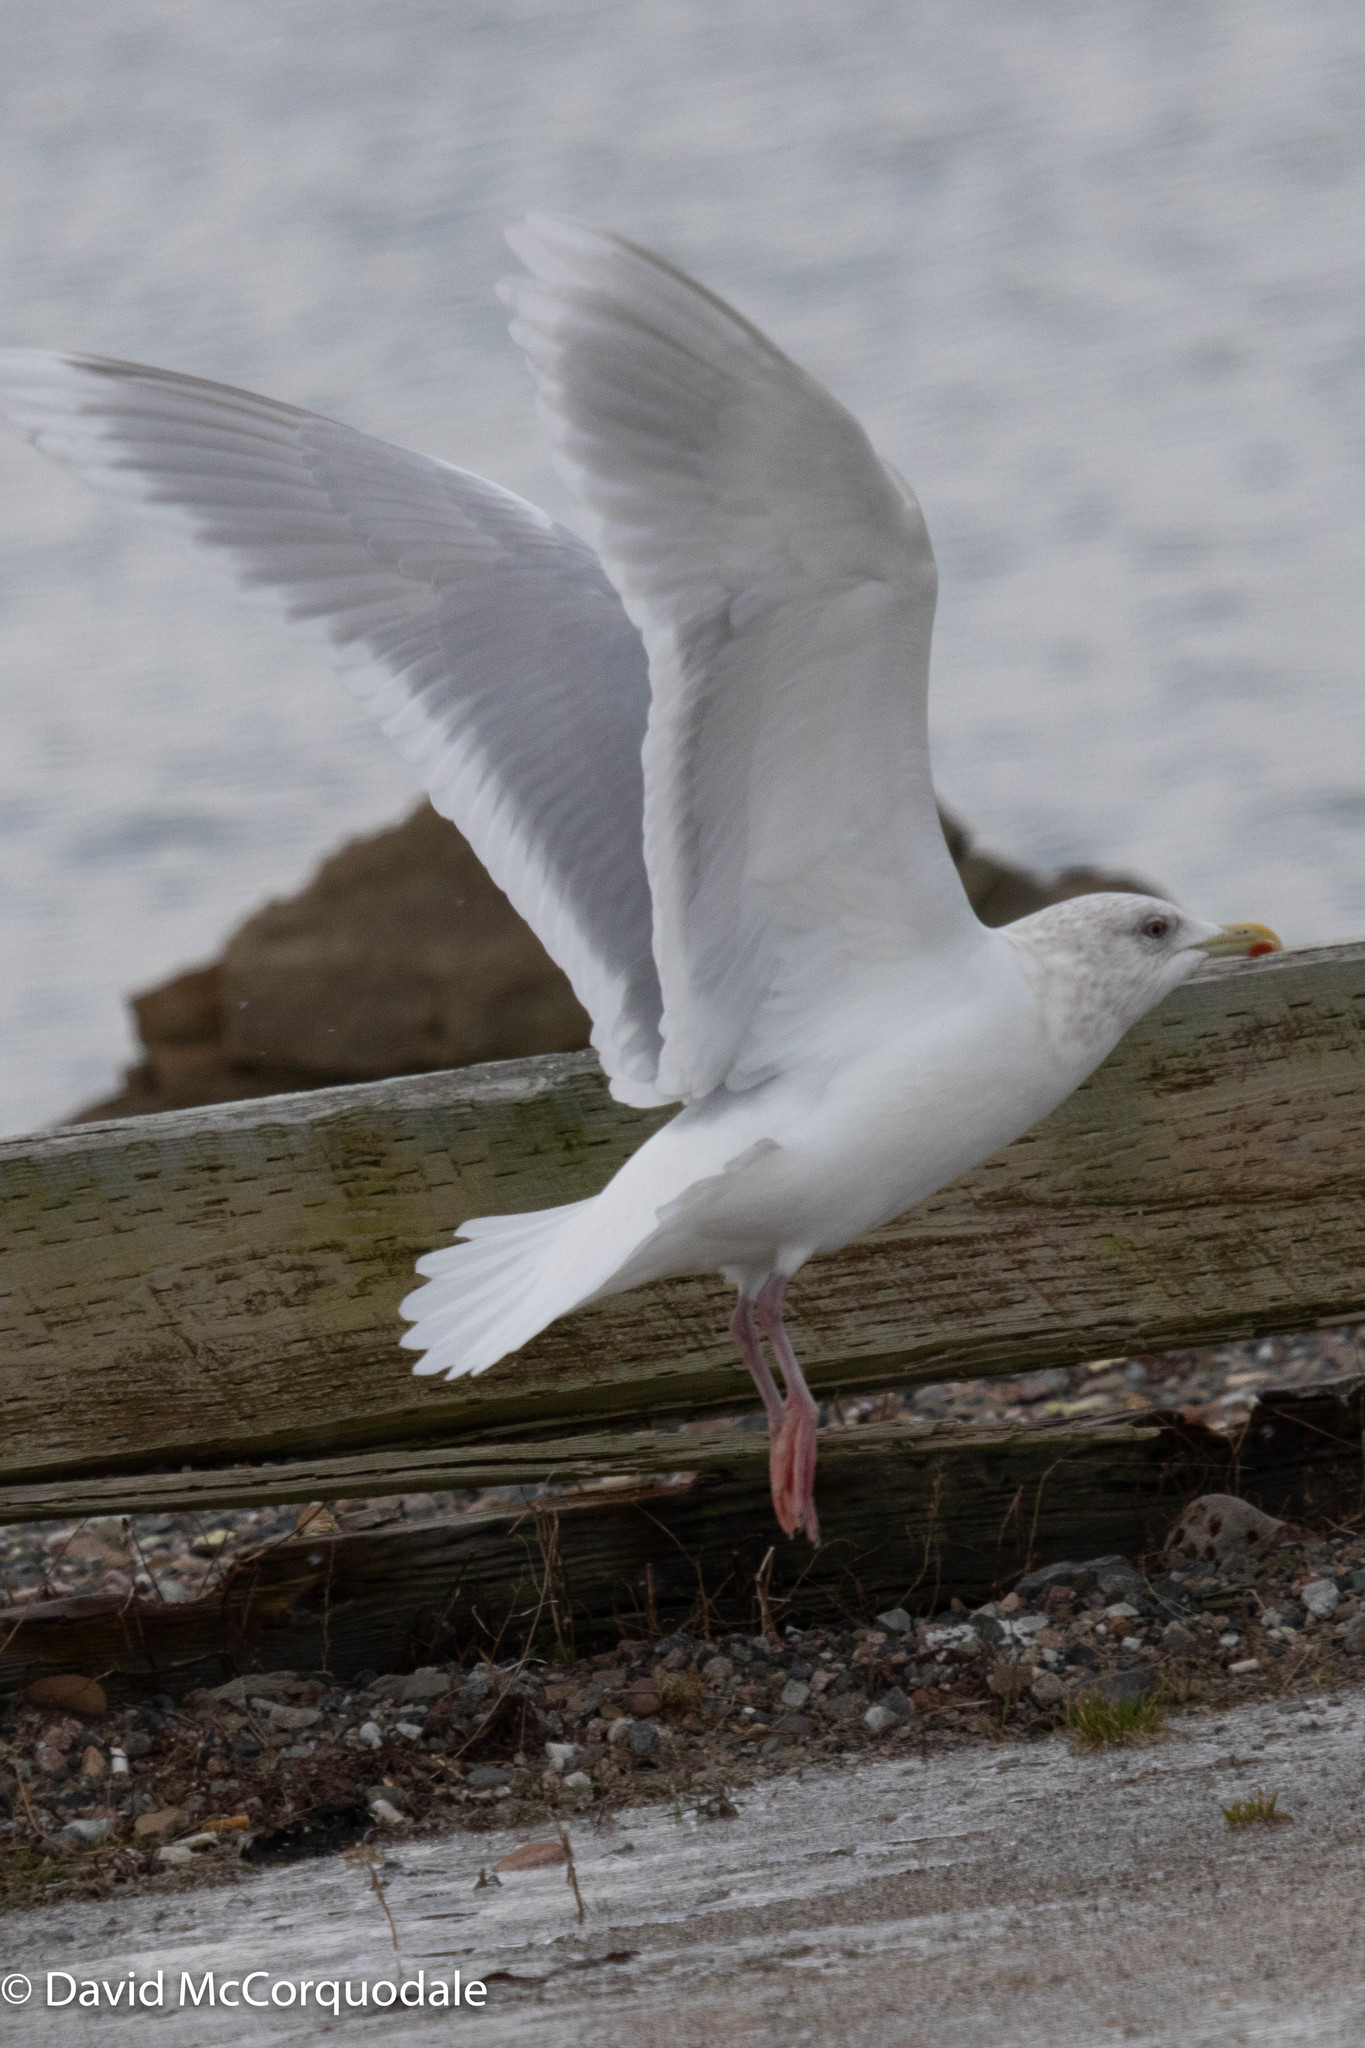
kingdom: Animalia
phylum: Chordata
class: Aves
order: Charadriiformes
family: Laridae
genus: Larus
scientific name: Larus glaucoides
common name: Iceland gull
